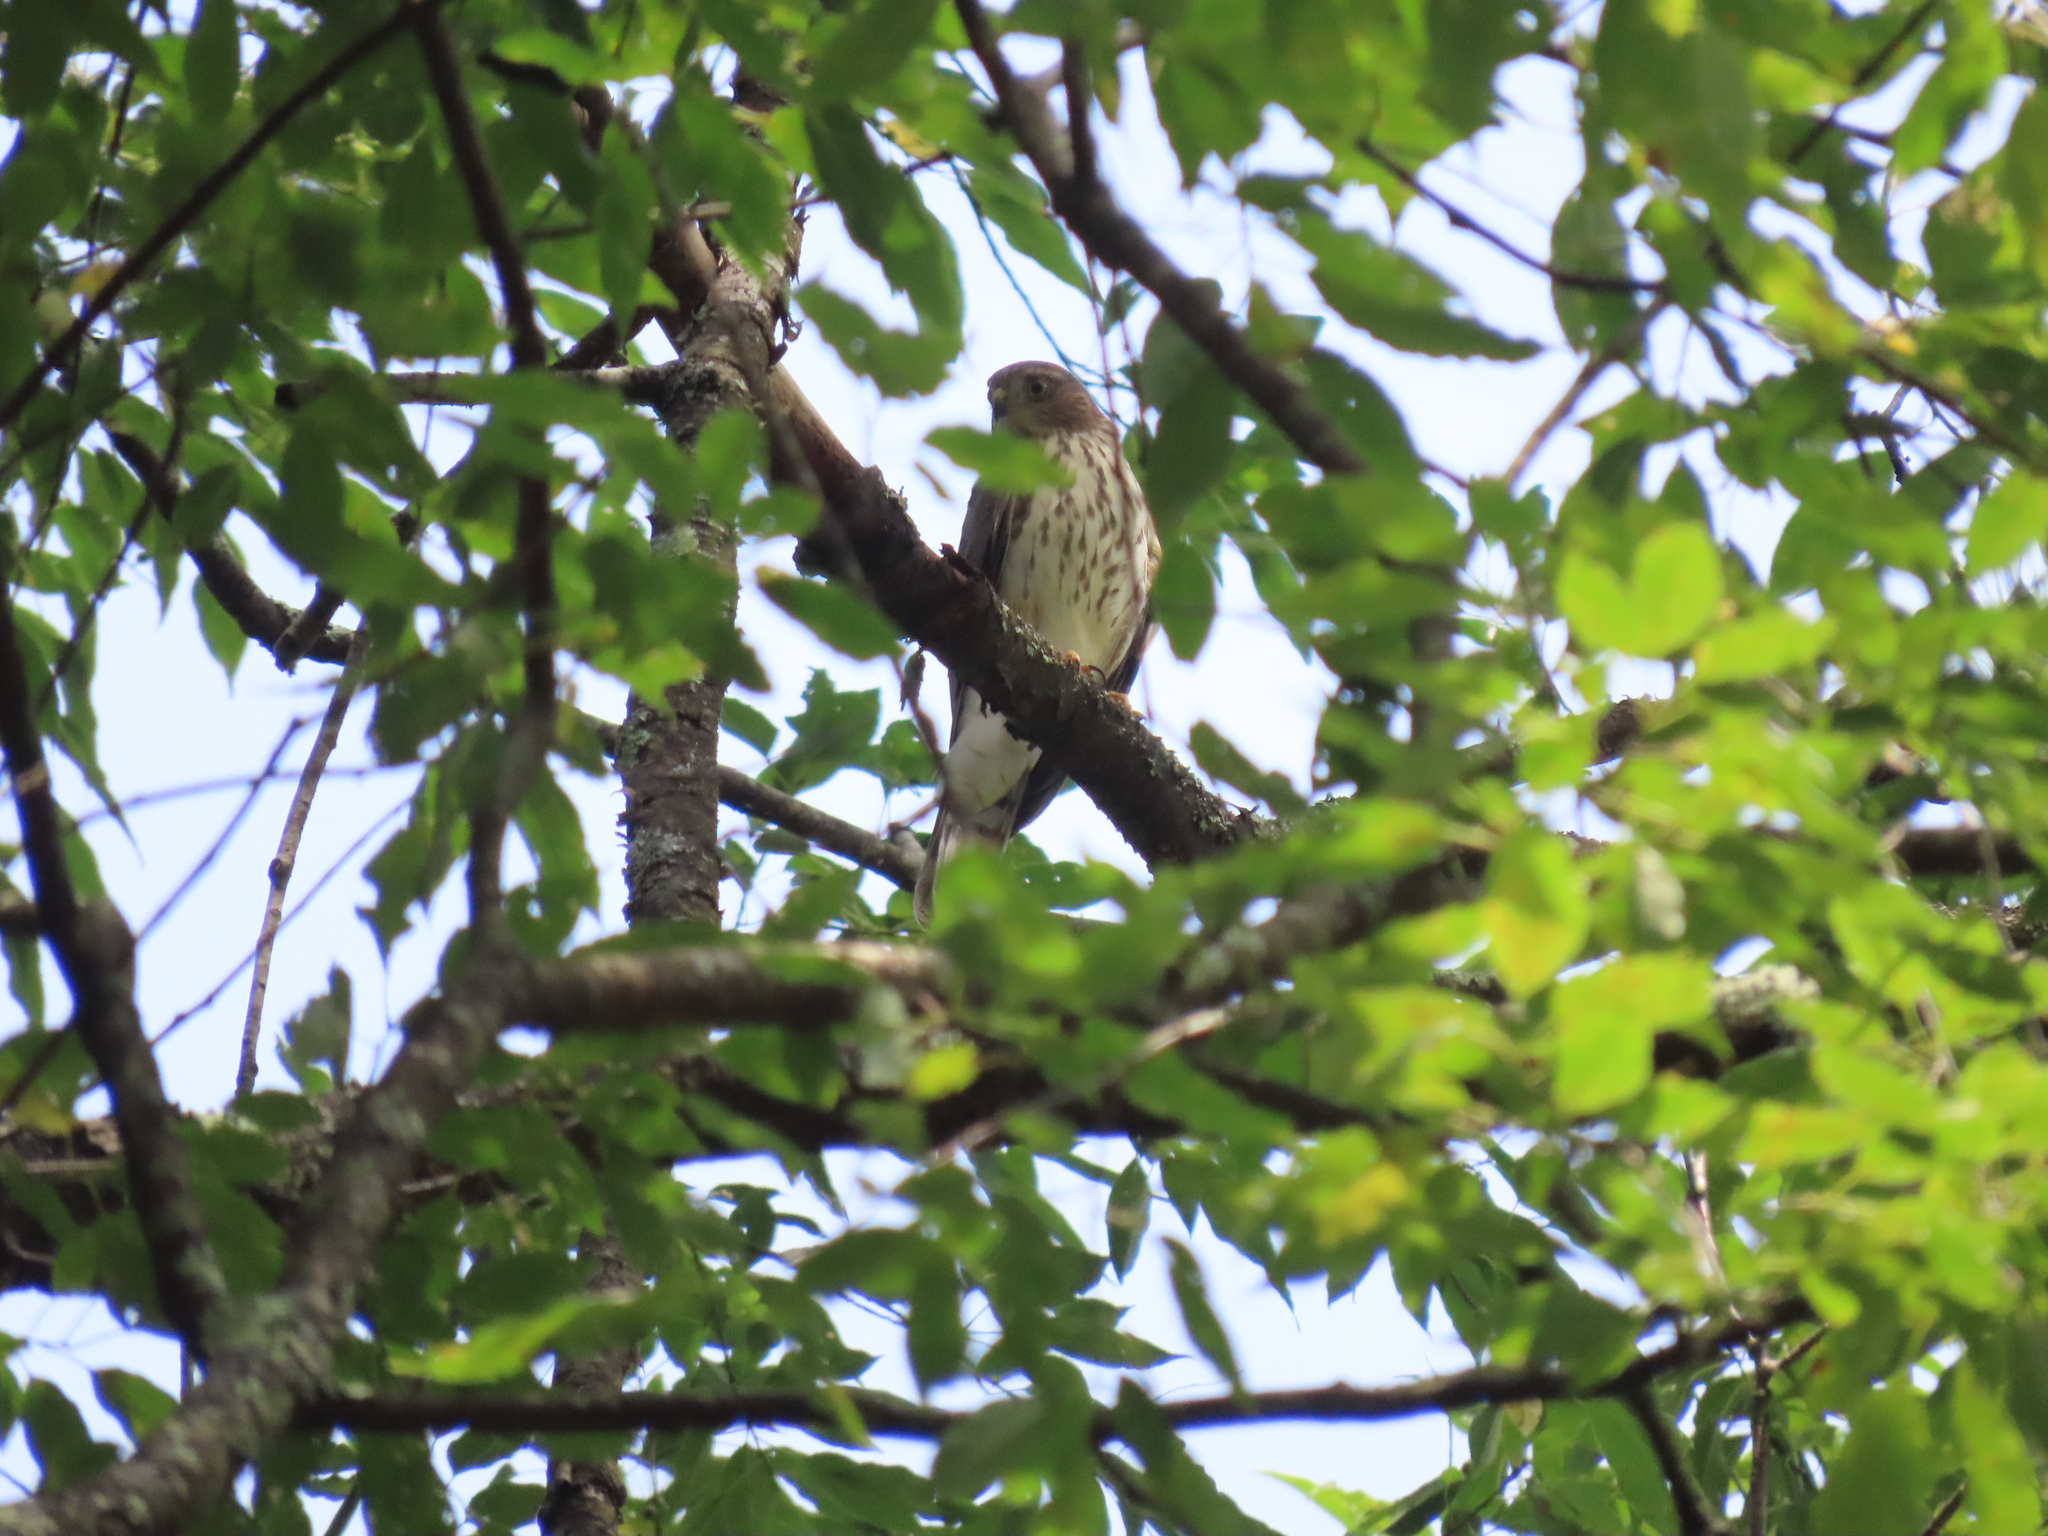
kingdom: Animalia
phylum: Chordata
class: Aves
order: Accipitriformes
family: Accipitridae
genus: Accipiter
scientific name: Accipiter striatus
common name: Sharp-shinned hawk
